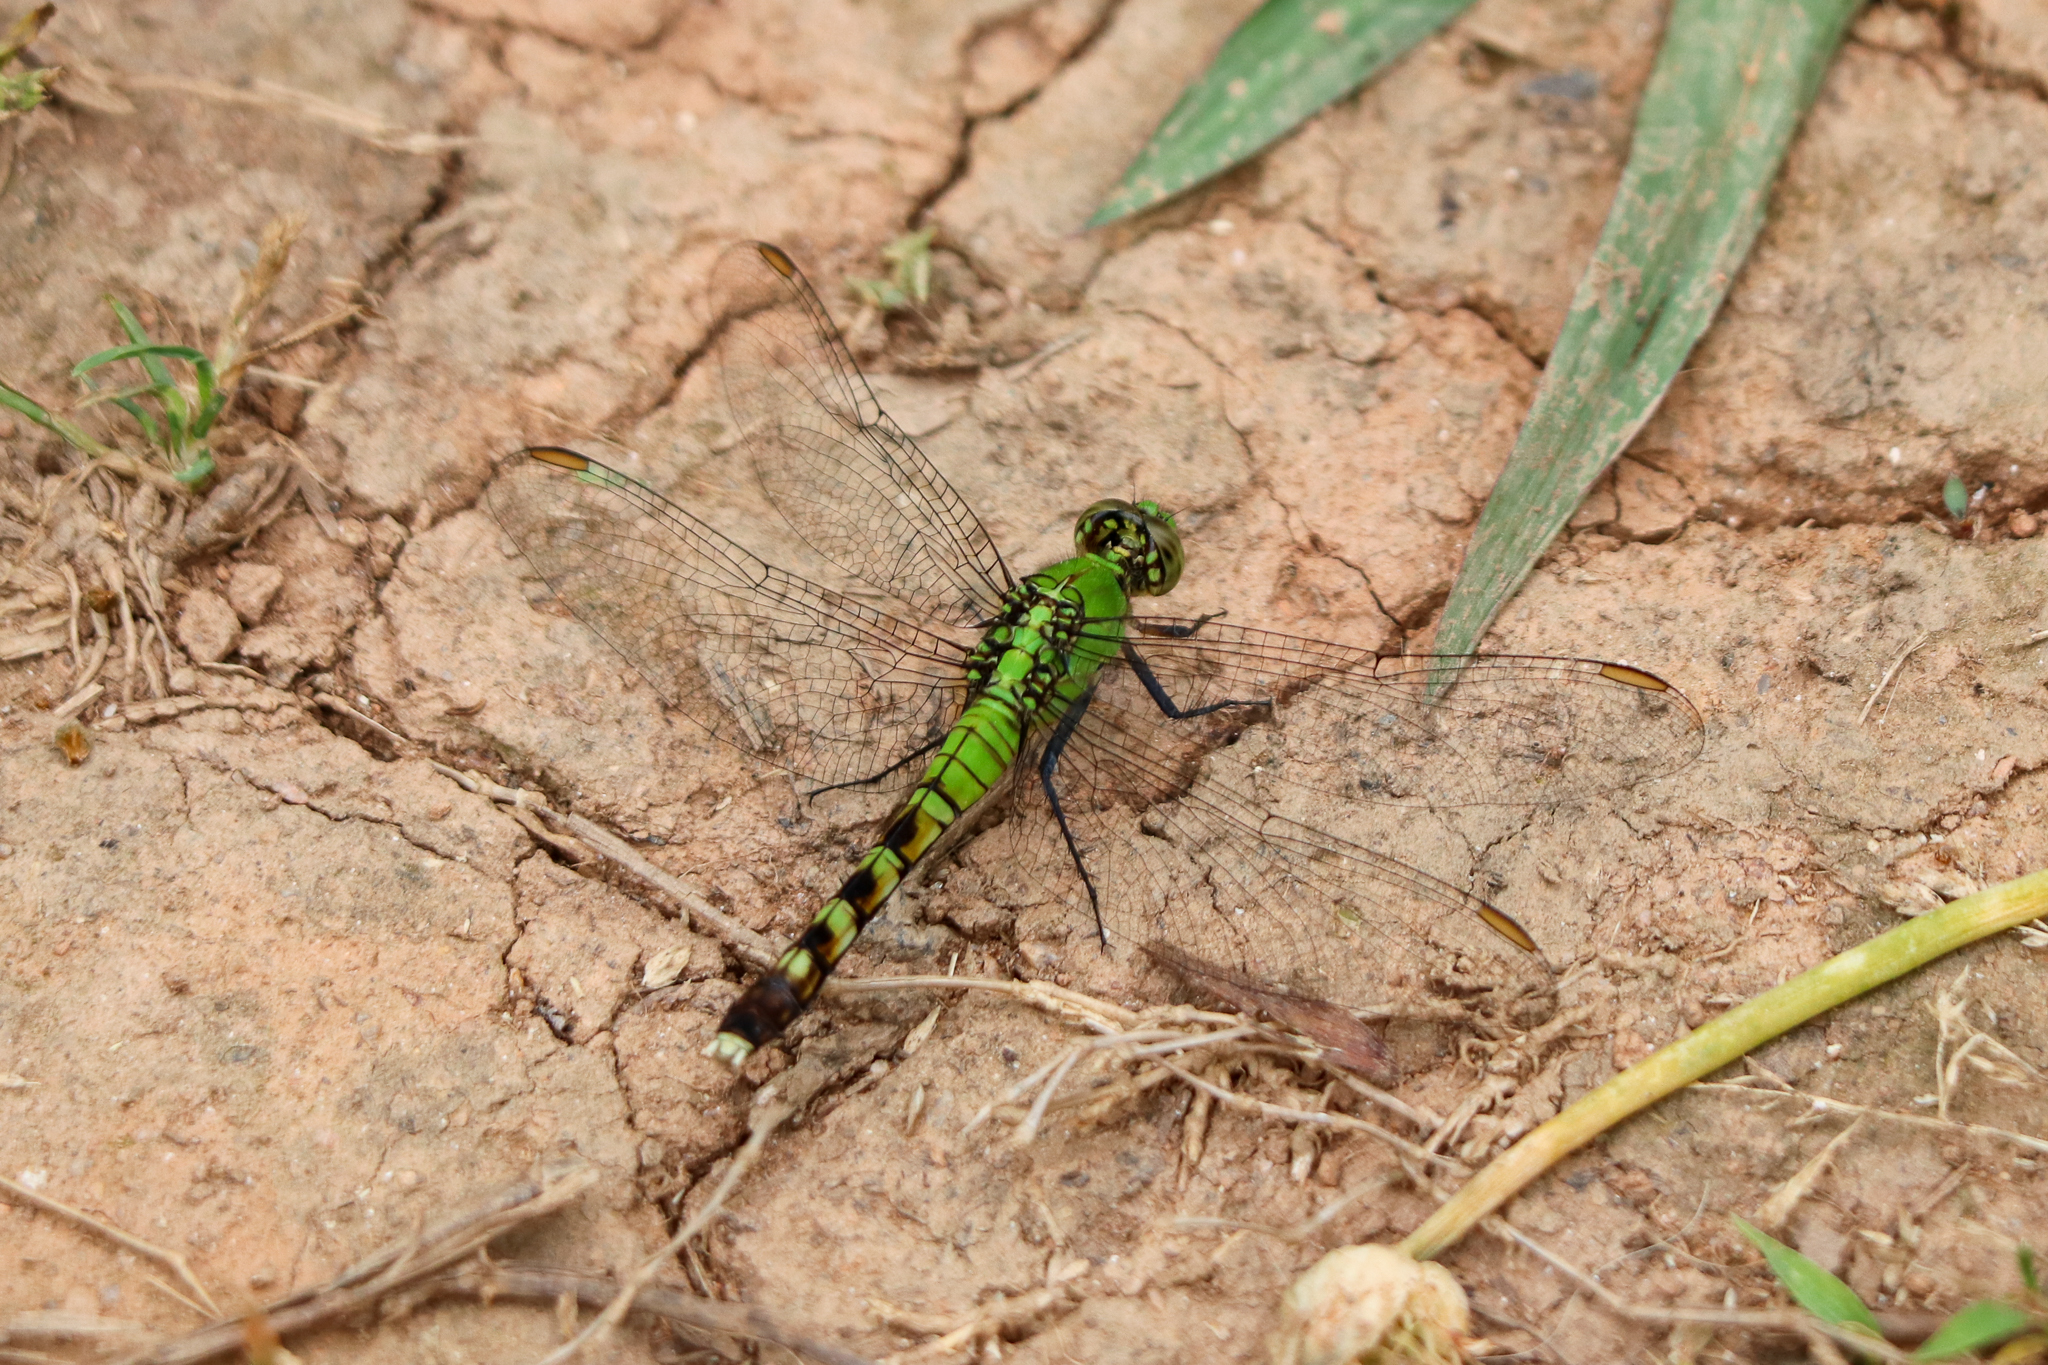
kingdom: Animalia
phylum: Arthropoda
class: Insecta
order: Odonata
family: Libellulidae
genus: Erythemis
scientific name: Erythemis simplicicollis
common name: Eastern pondhawk
